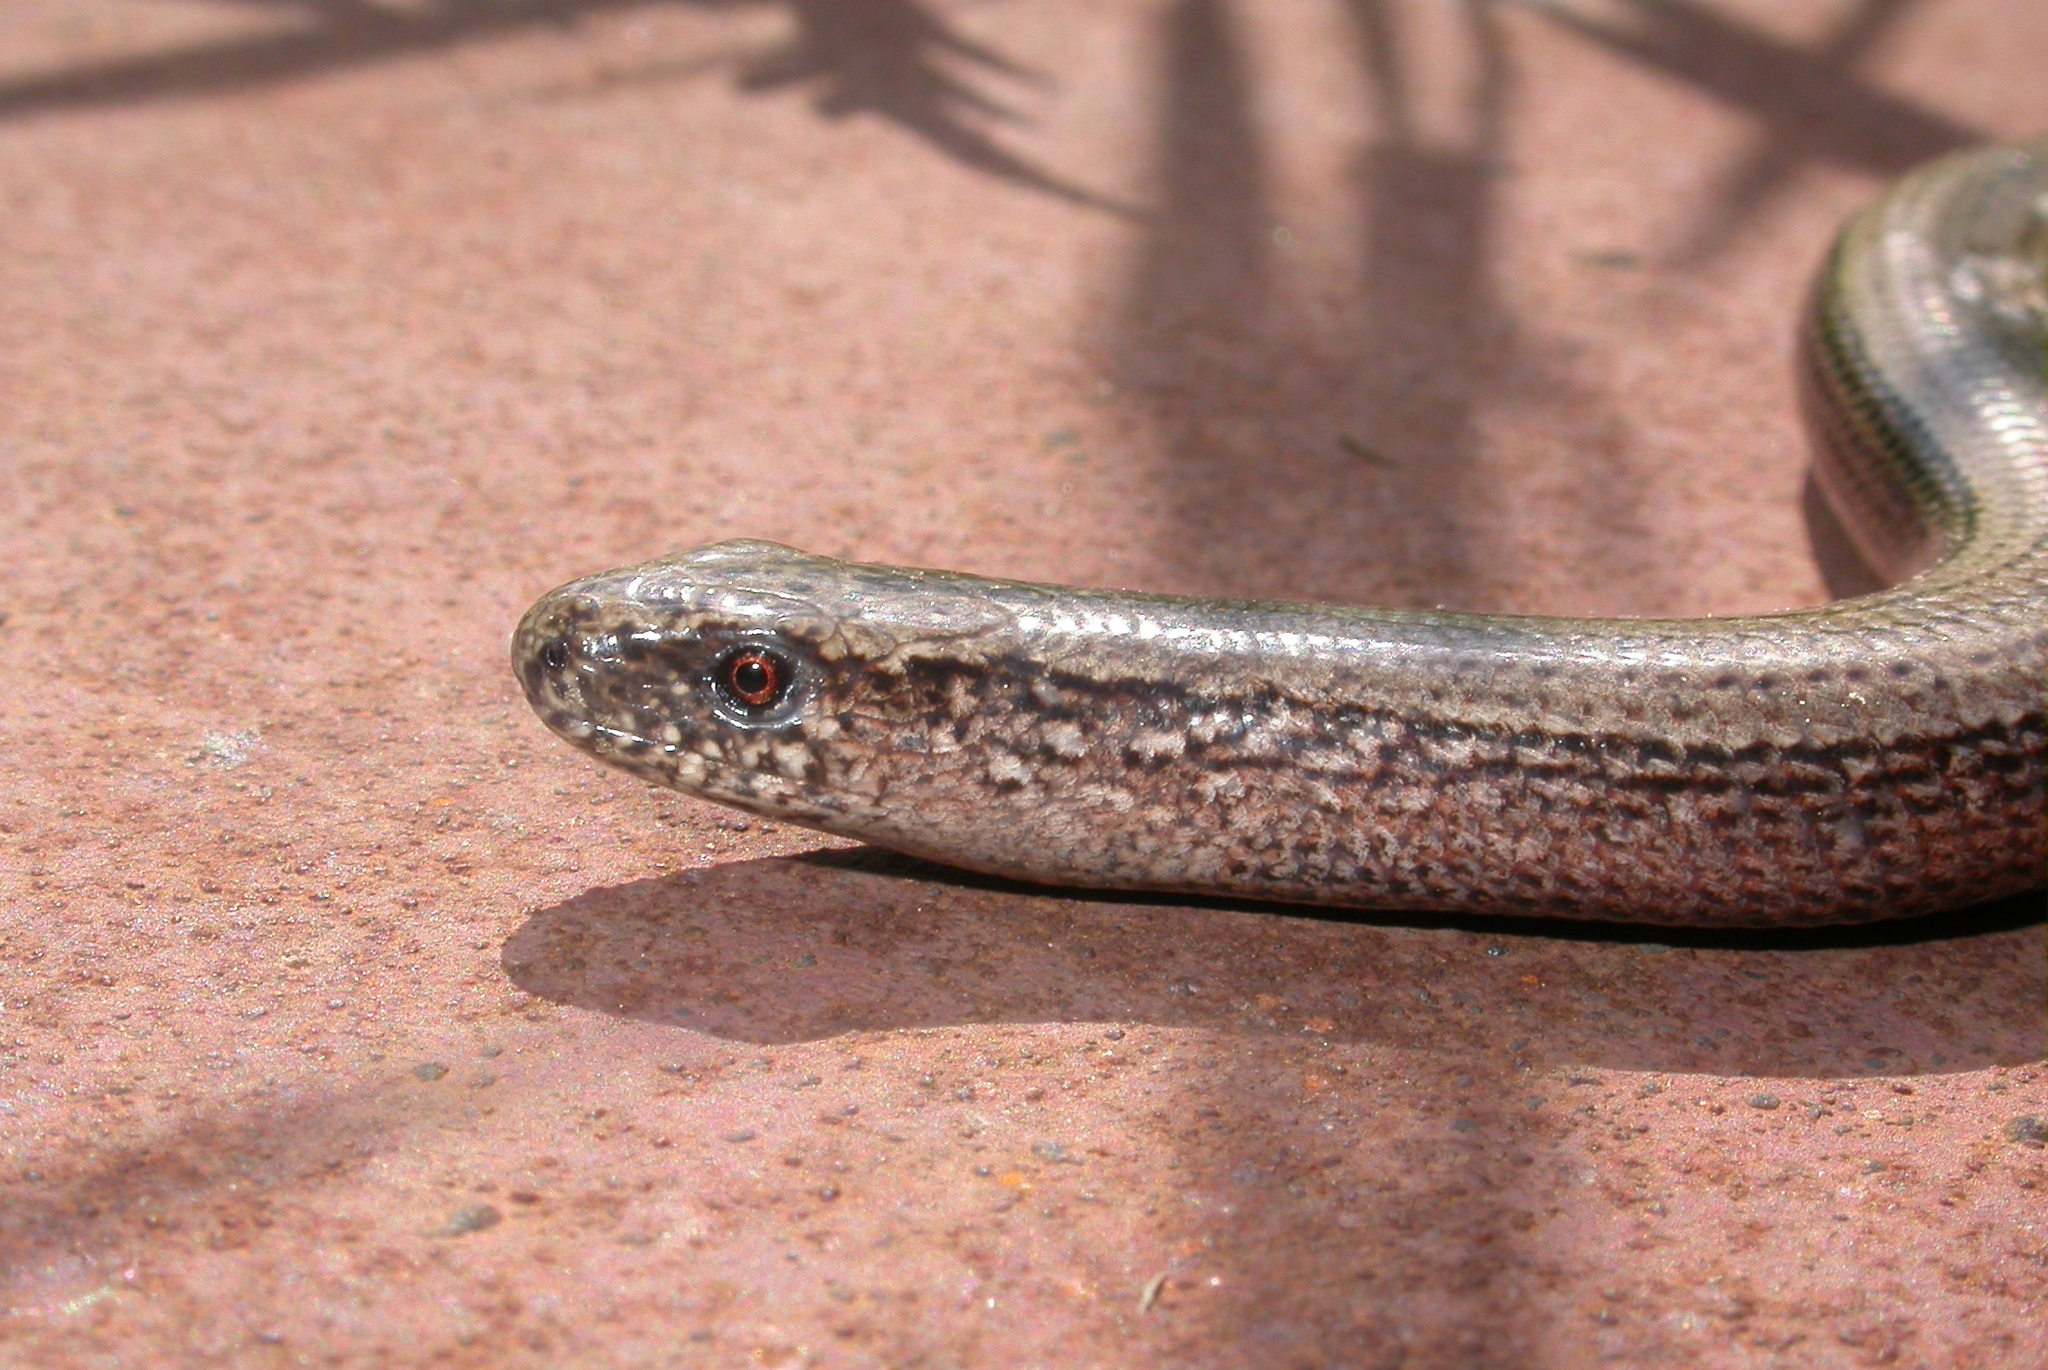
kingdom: Animalia
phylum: Chordata
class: Squamata
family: Anguidae
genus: Anguis
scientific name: Anguis fragilis
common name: Slow worm
